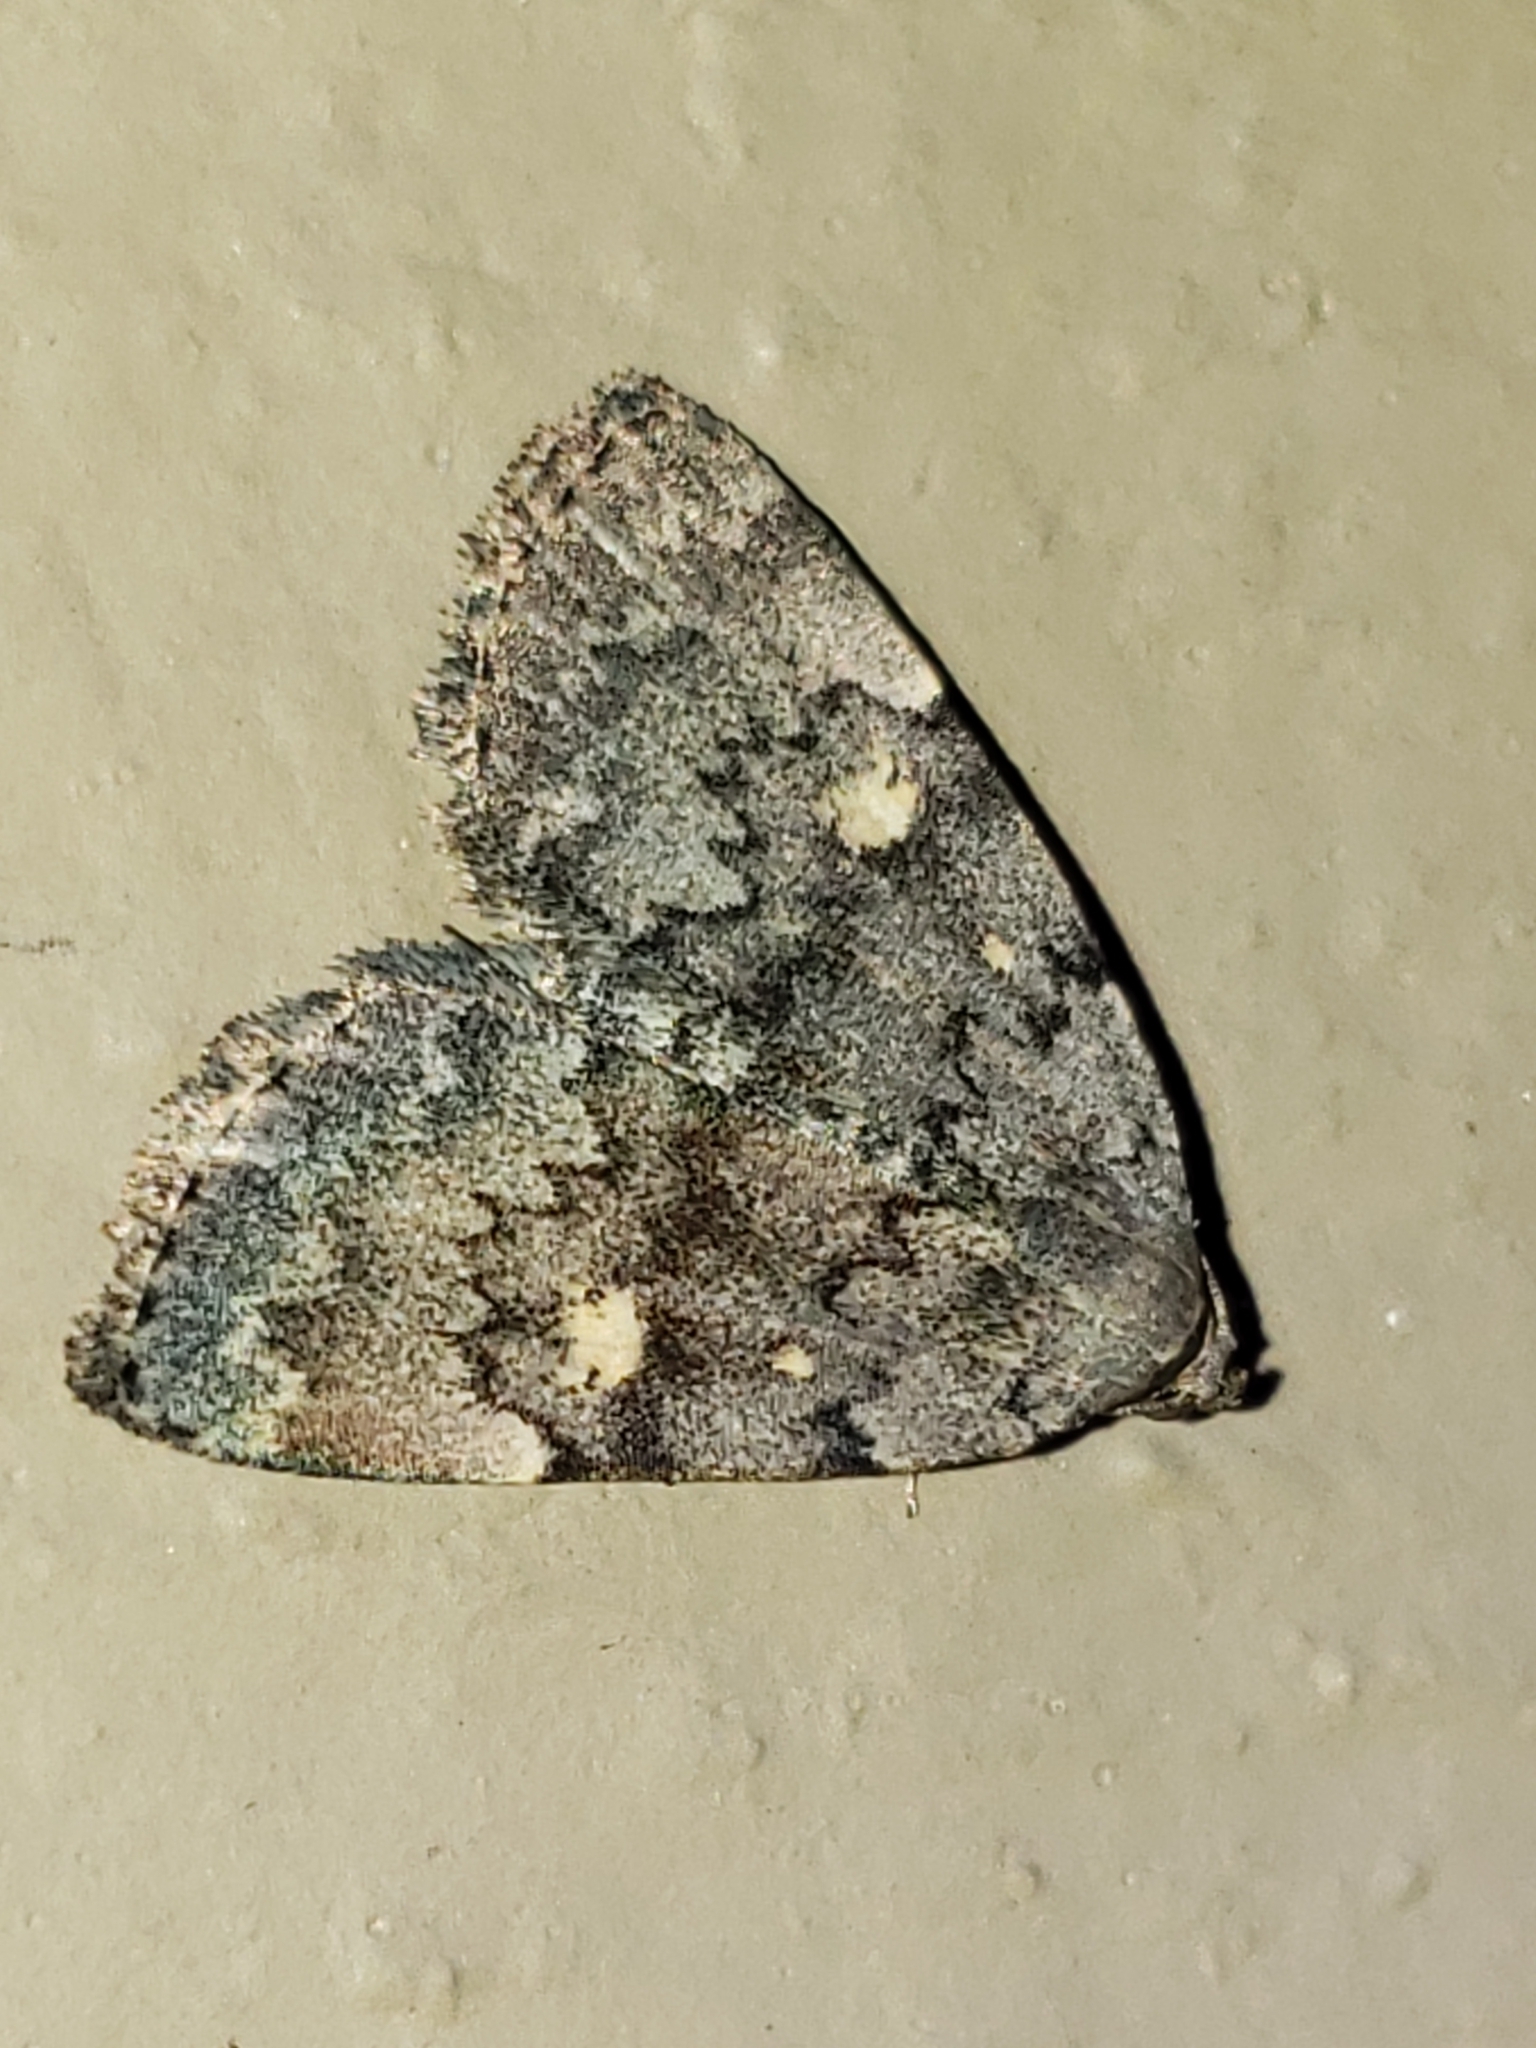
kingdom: Animalia
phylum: Arthropoda
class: Insecta
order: Lepidoptera
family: Erebidae
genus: Idia
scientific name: Idia aemula
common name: Common idia moth
